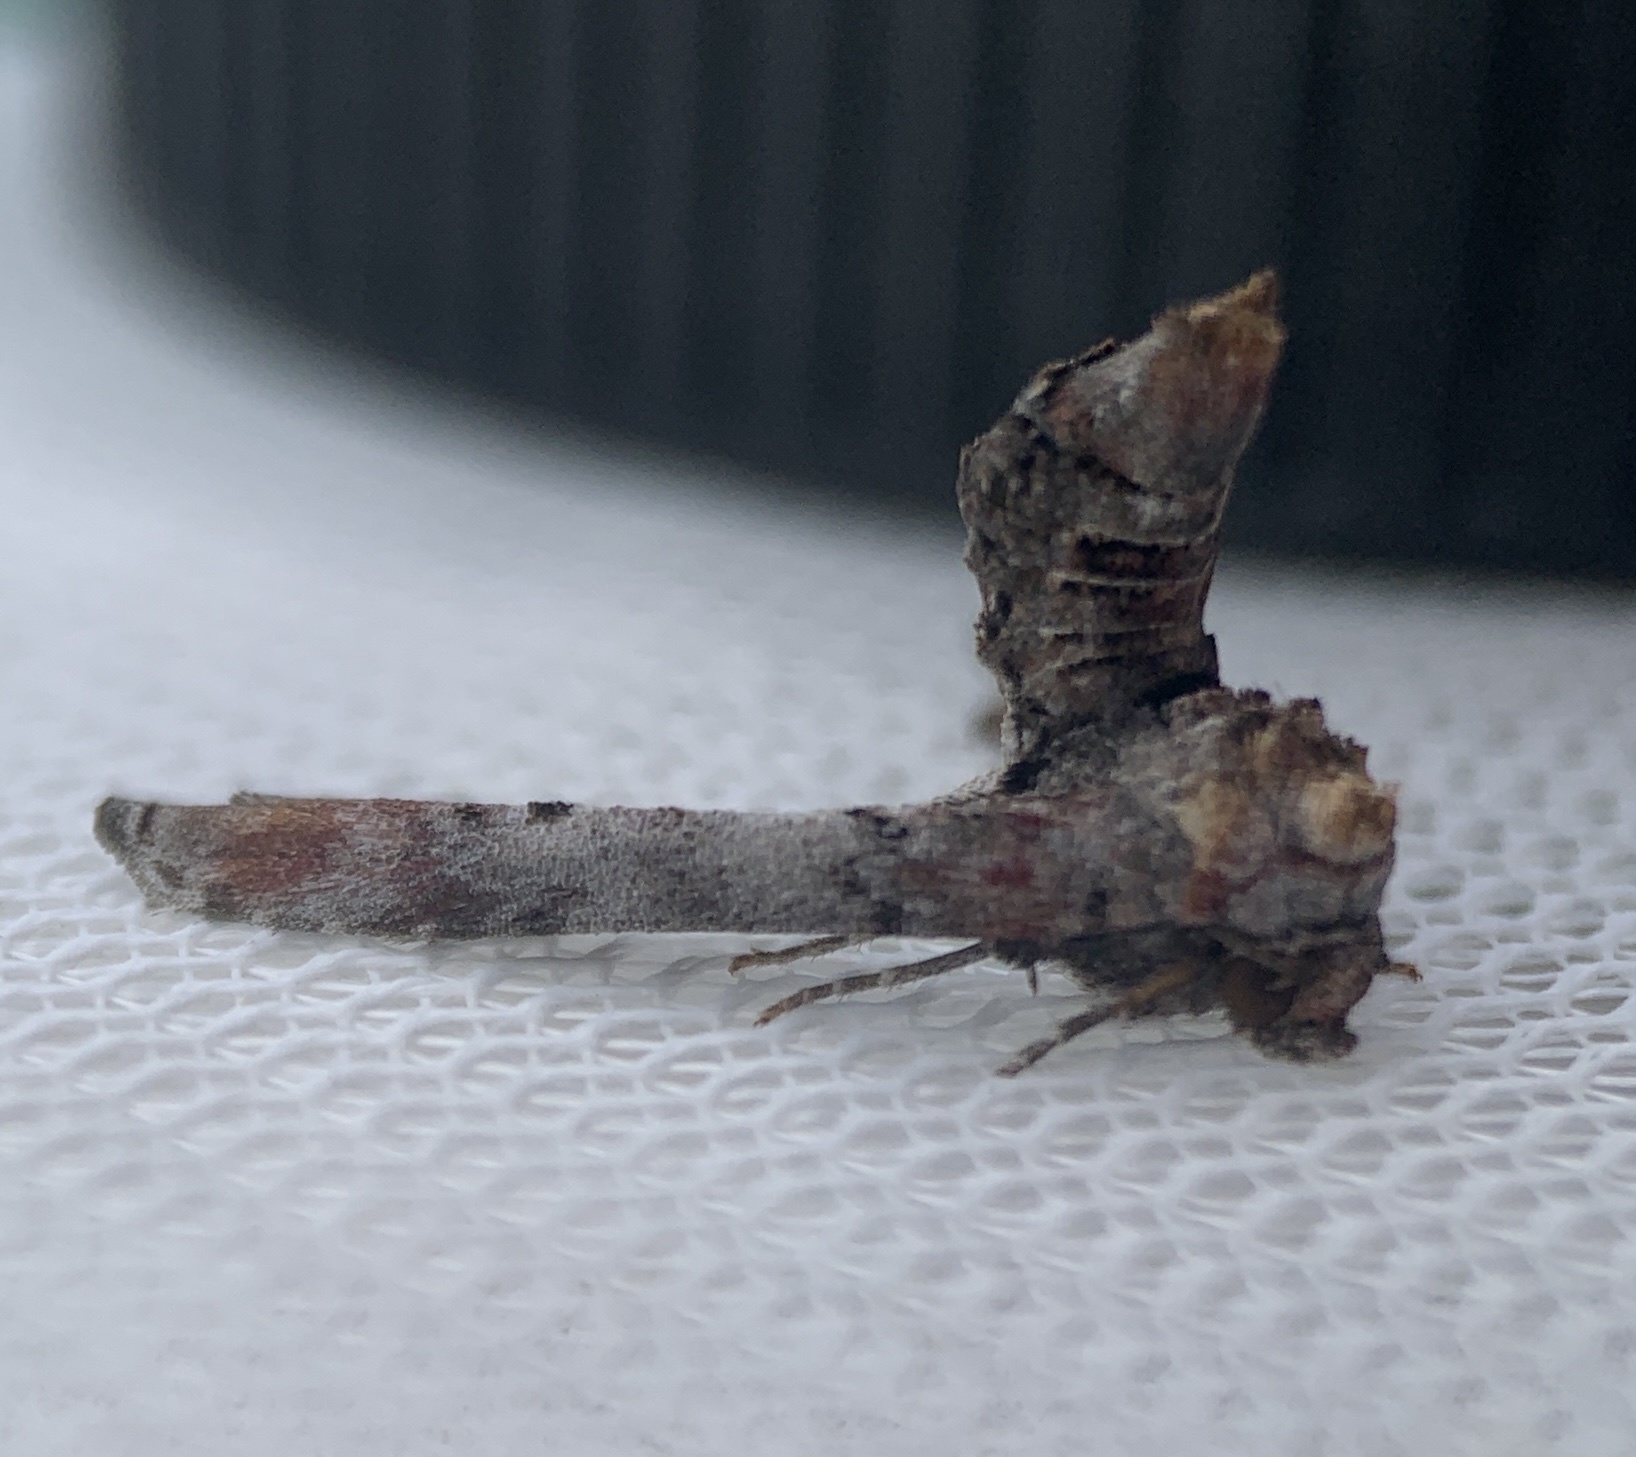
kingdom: Animalia
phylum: Arthropoda
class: Insecta
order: Lepidoptera
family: Euteliidae
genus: Marathyssa
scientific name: Marathyssa inficita
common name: Dark marathyssa moth
